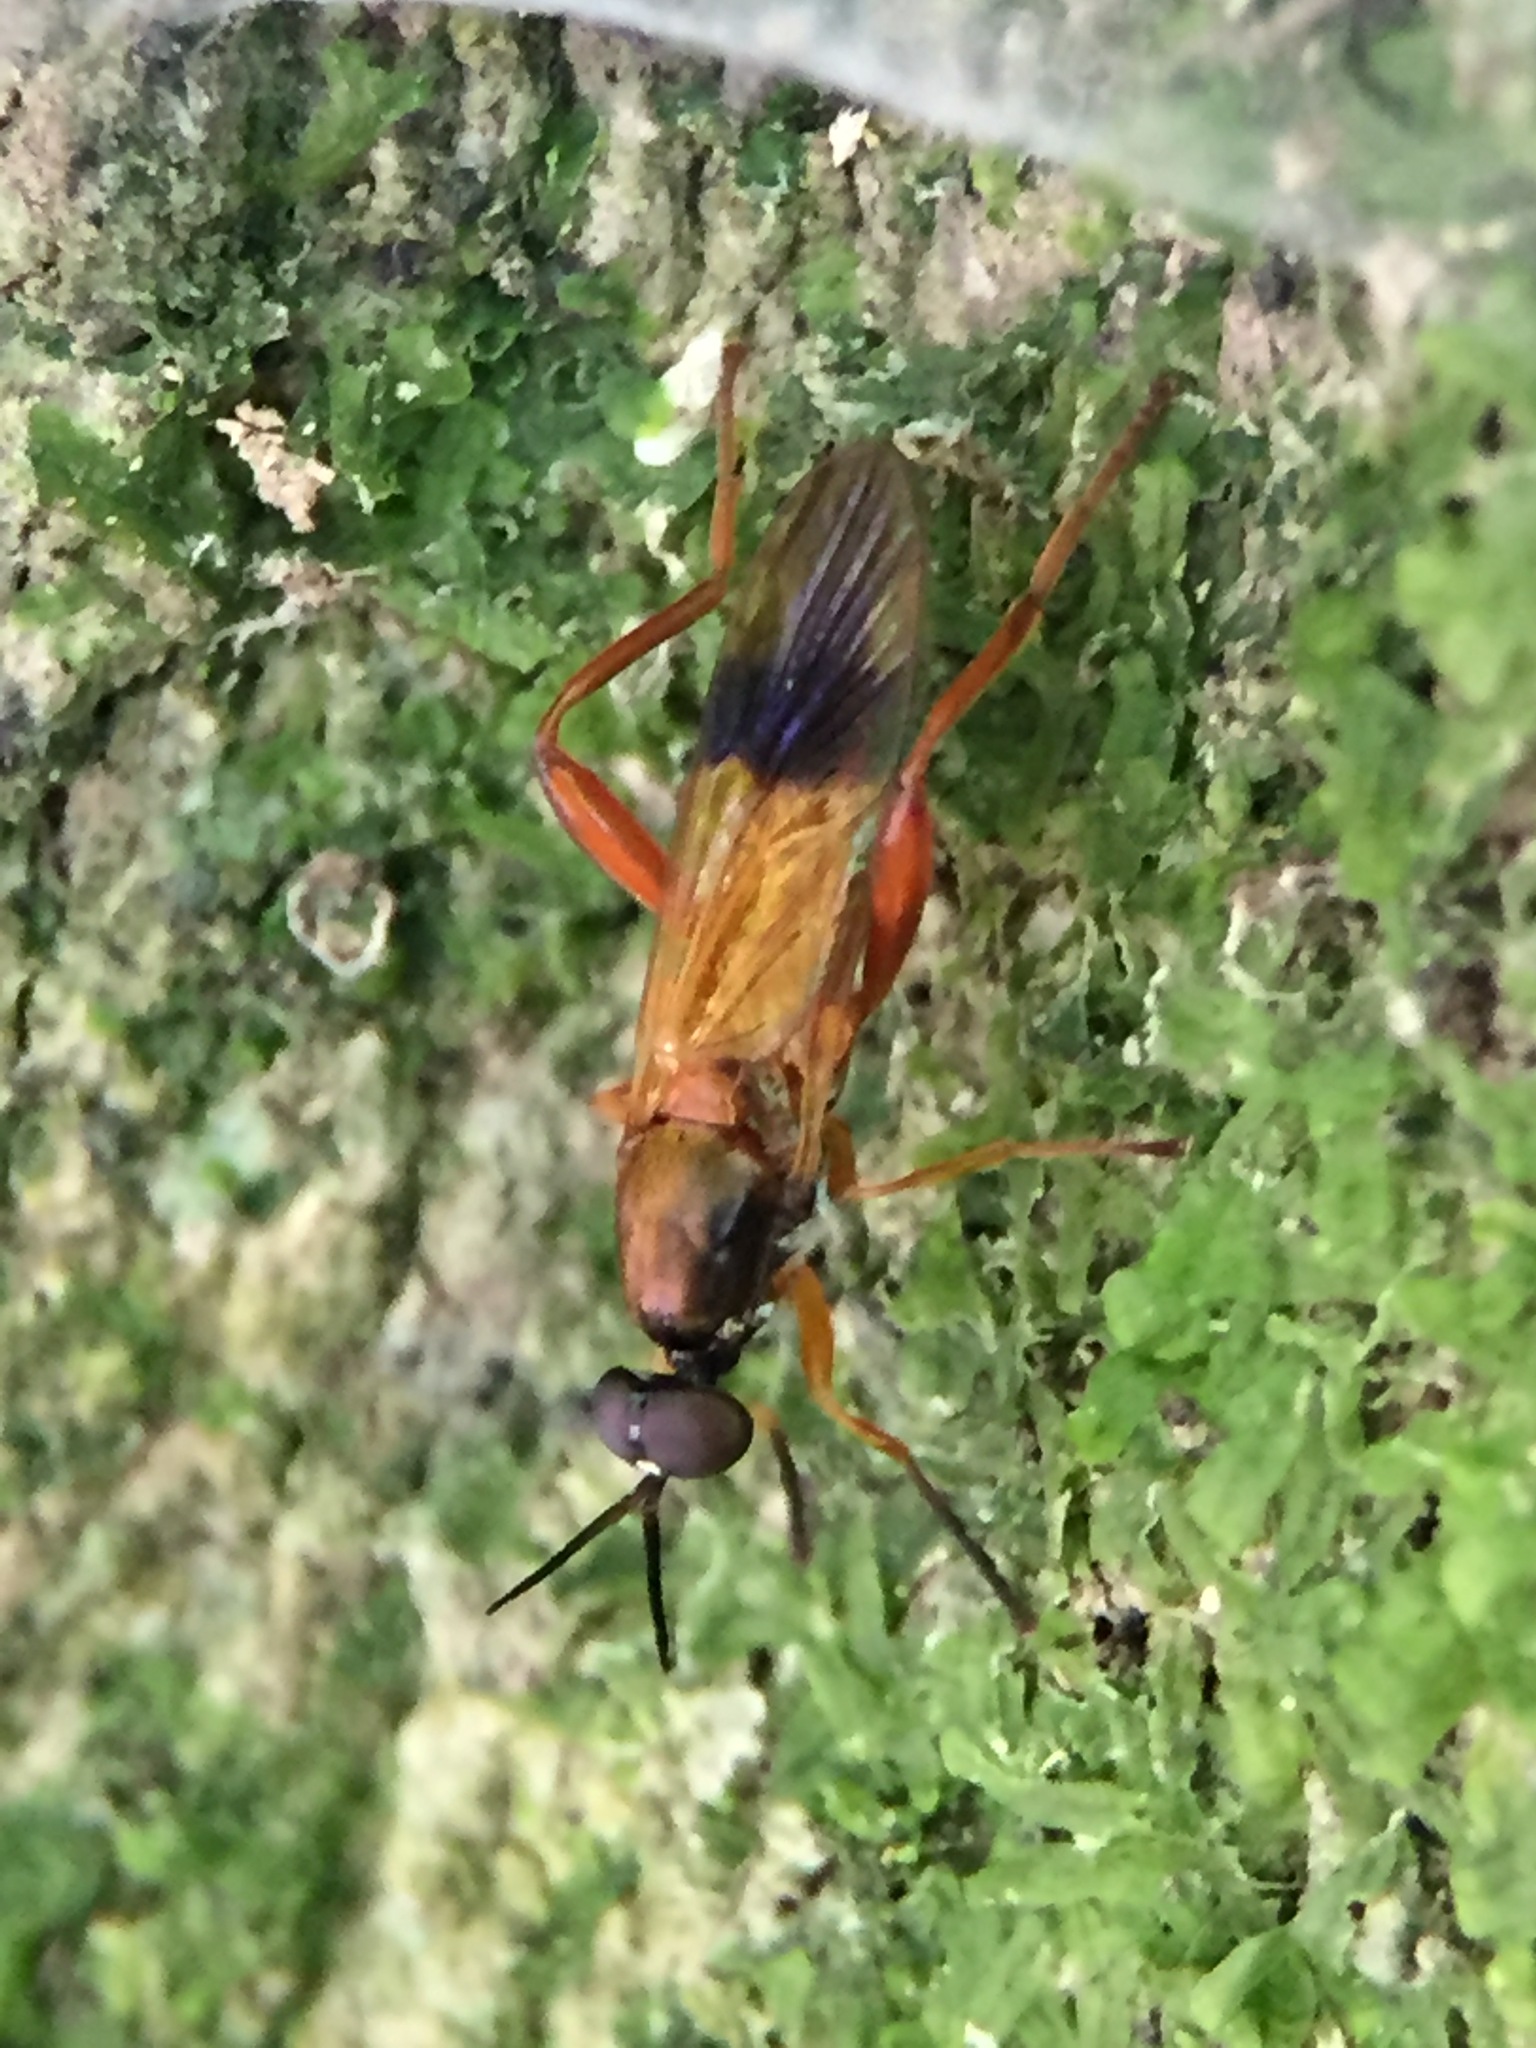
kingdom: Animalia
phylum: Arthropoda
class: Insecta
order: Diptera
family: Stratiomyidae
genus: Benhamyia
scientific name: Benhamyia apicalis
